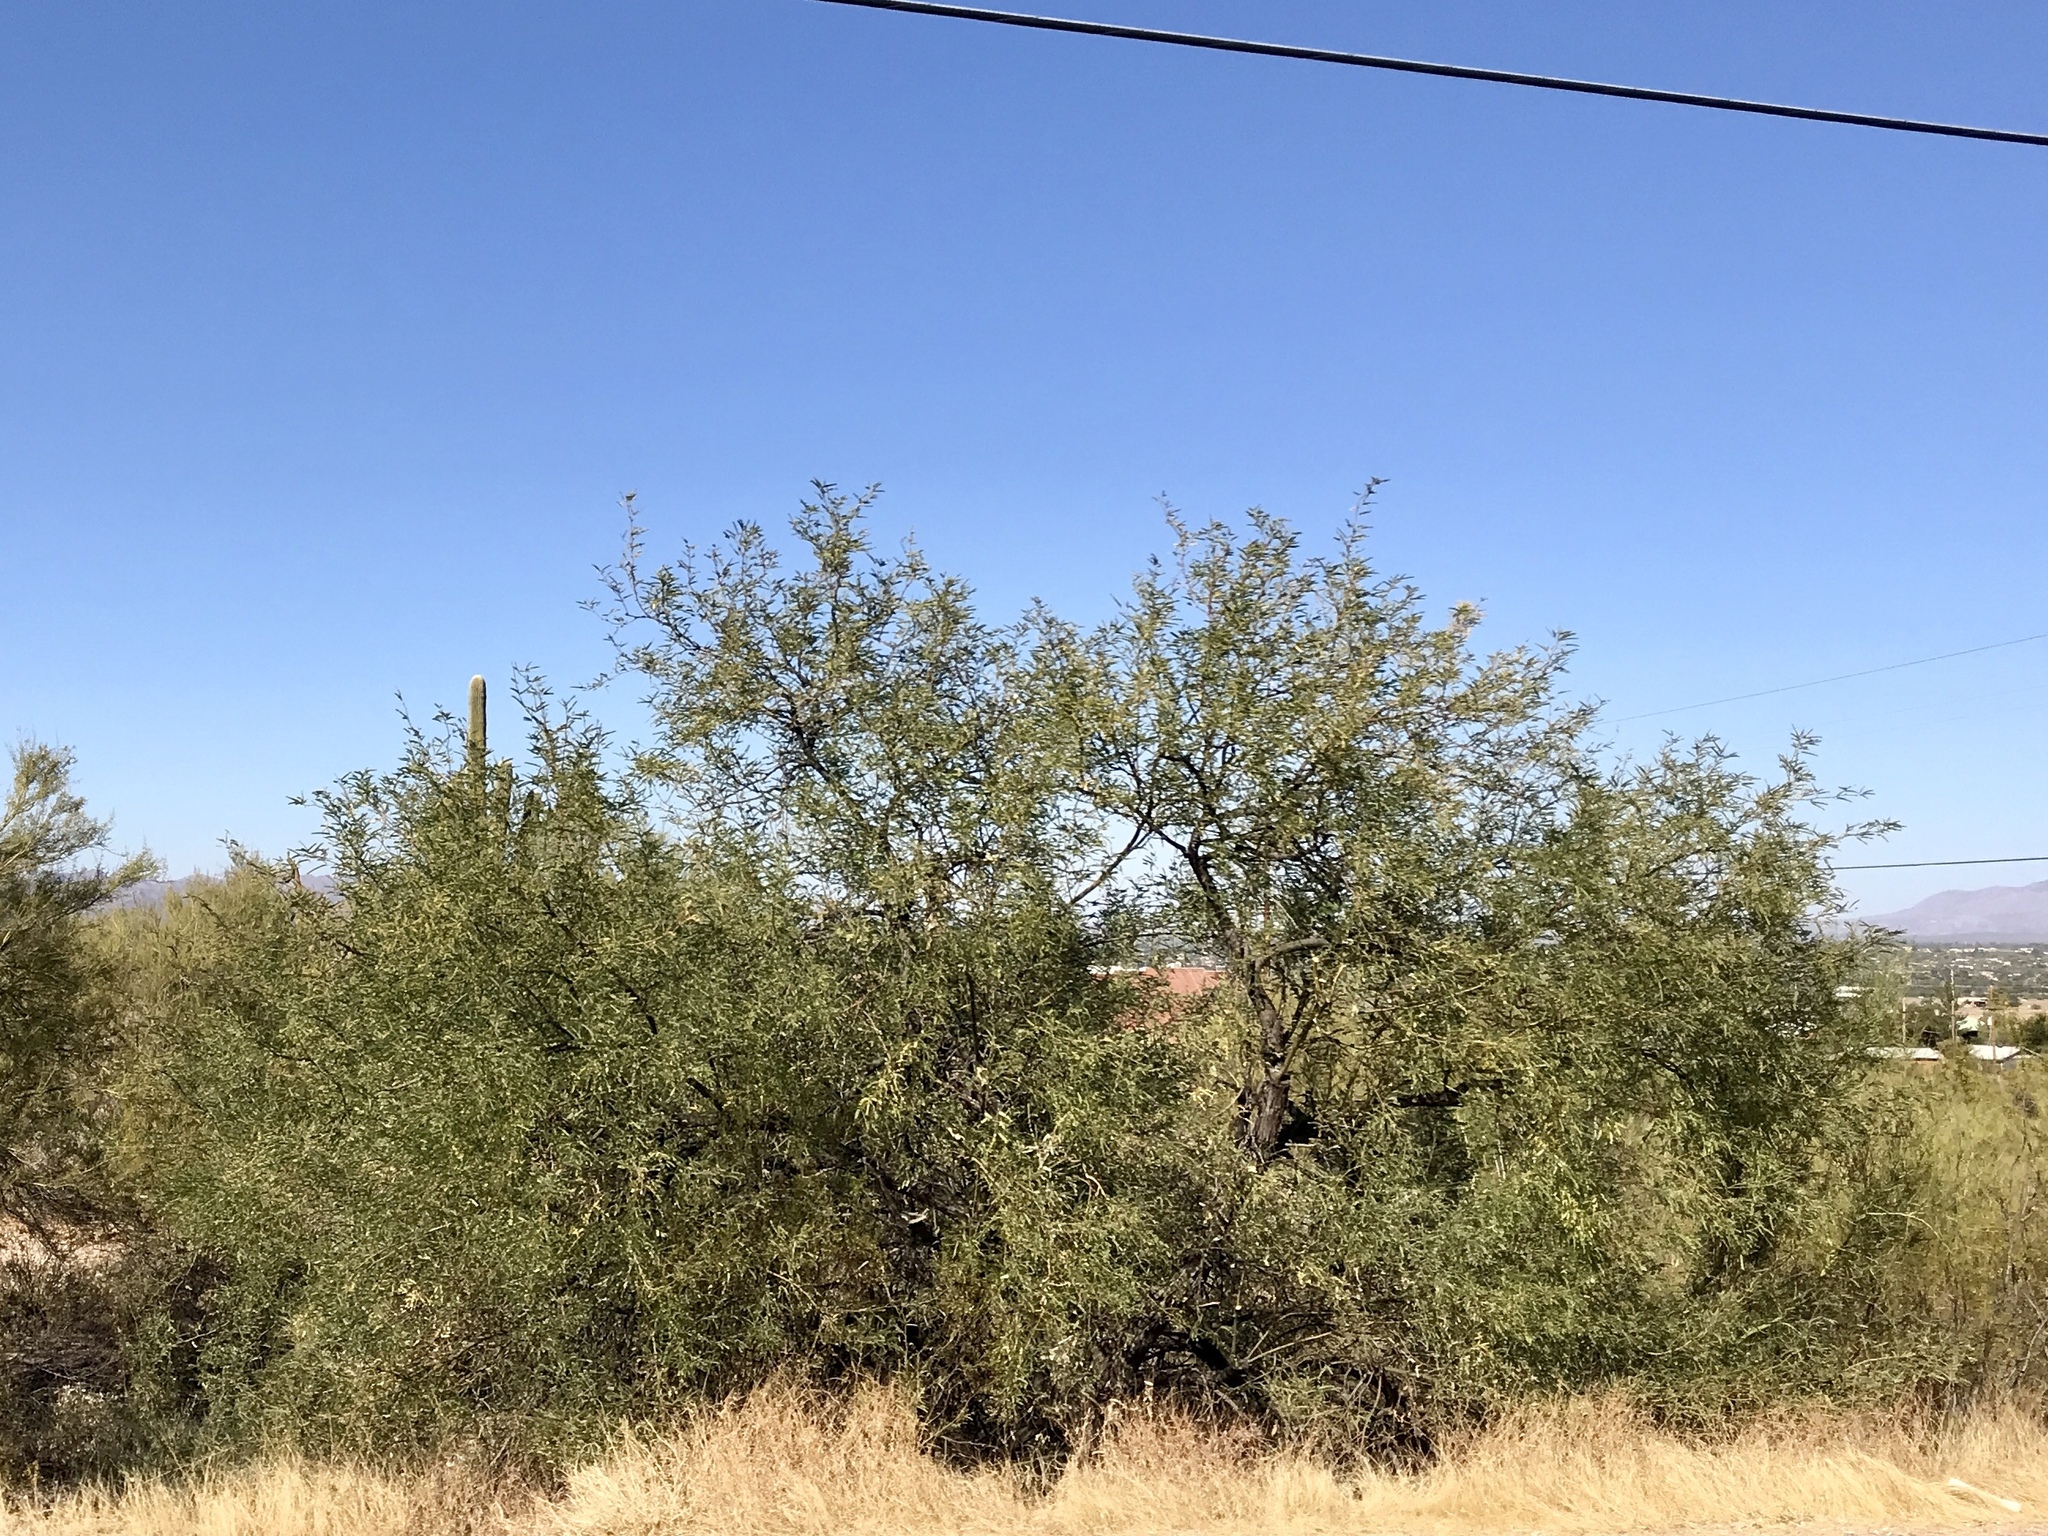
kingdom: Plantae
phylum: Tracheophyta
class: Magnoliopsida
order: Fabales
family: Fabaceae
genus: Prosopis
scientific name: Prosopis velutina
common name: Velvet mesquite
